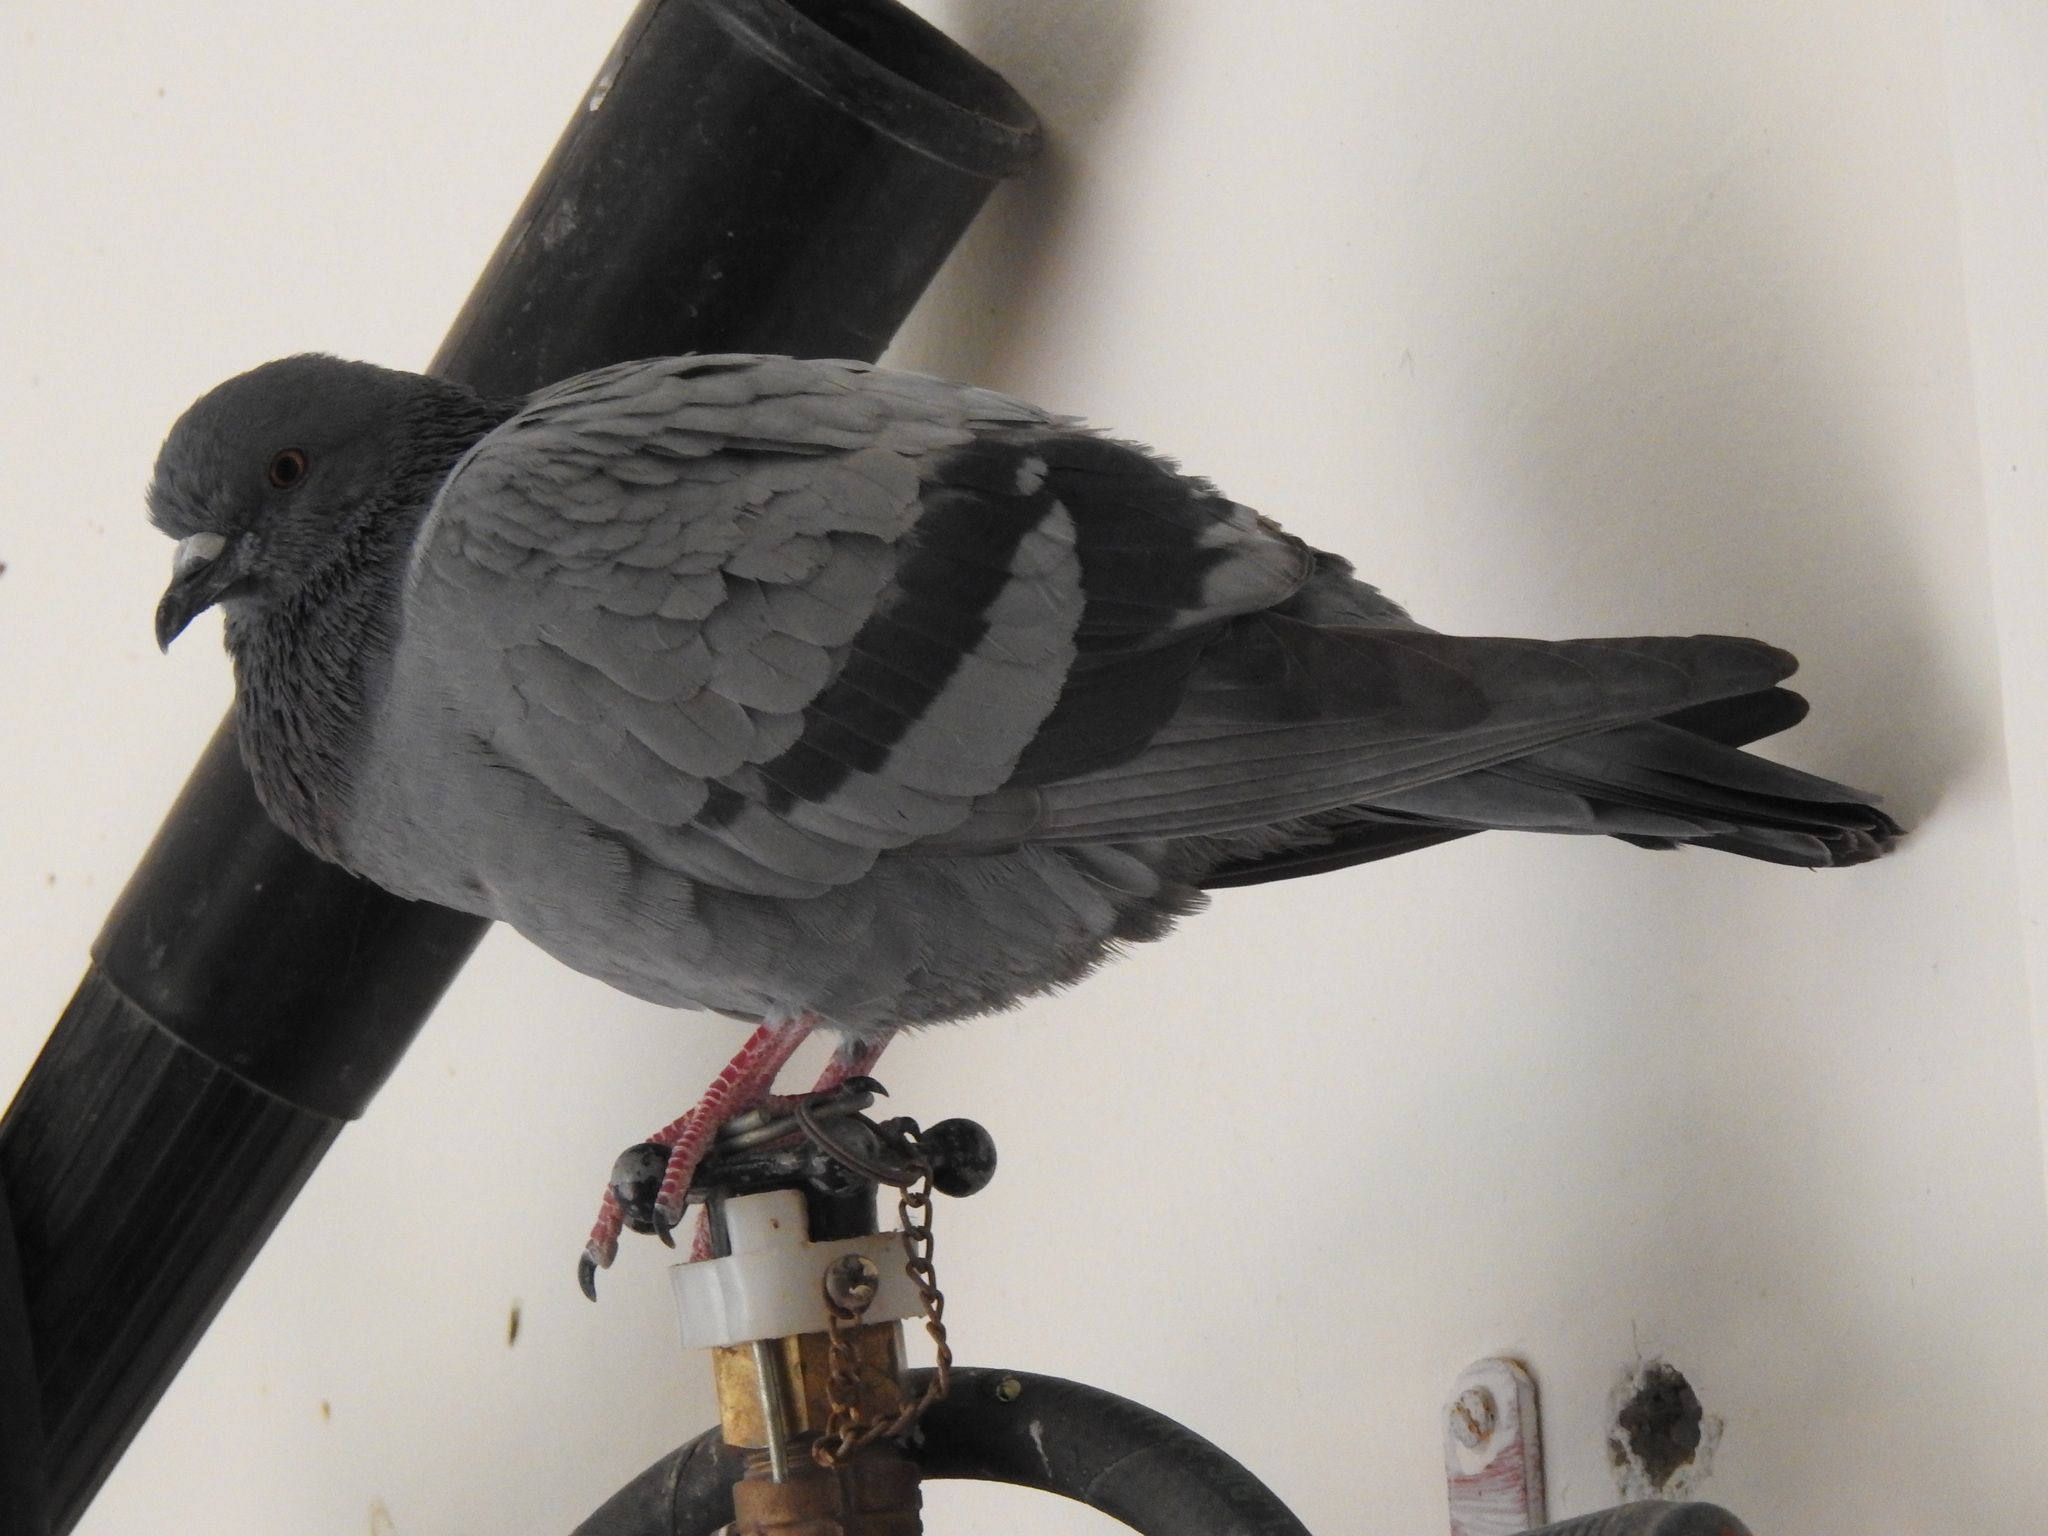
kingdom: Animalia
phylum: Chordata
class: Aves
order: Columbiformes
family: Columbidae
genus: Columba
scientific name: Columba livia
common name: Rock pigeon
